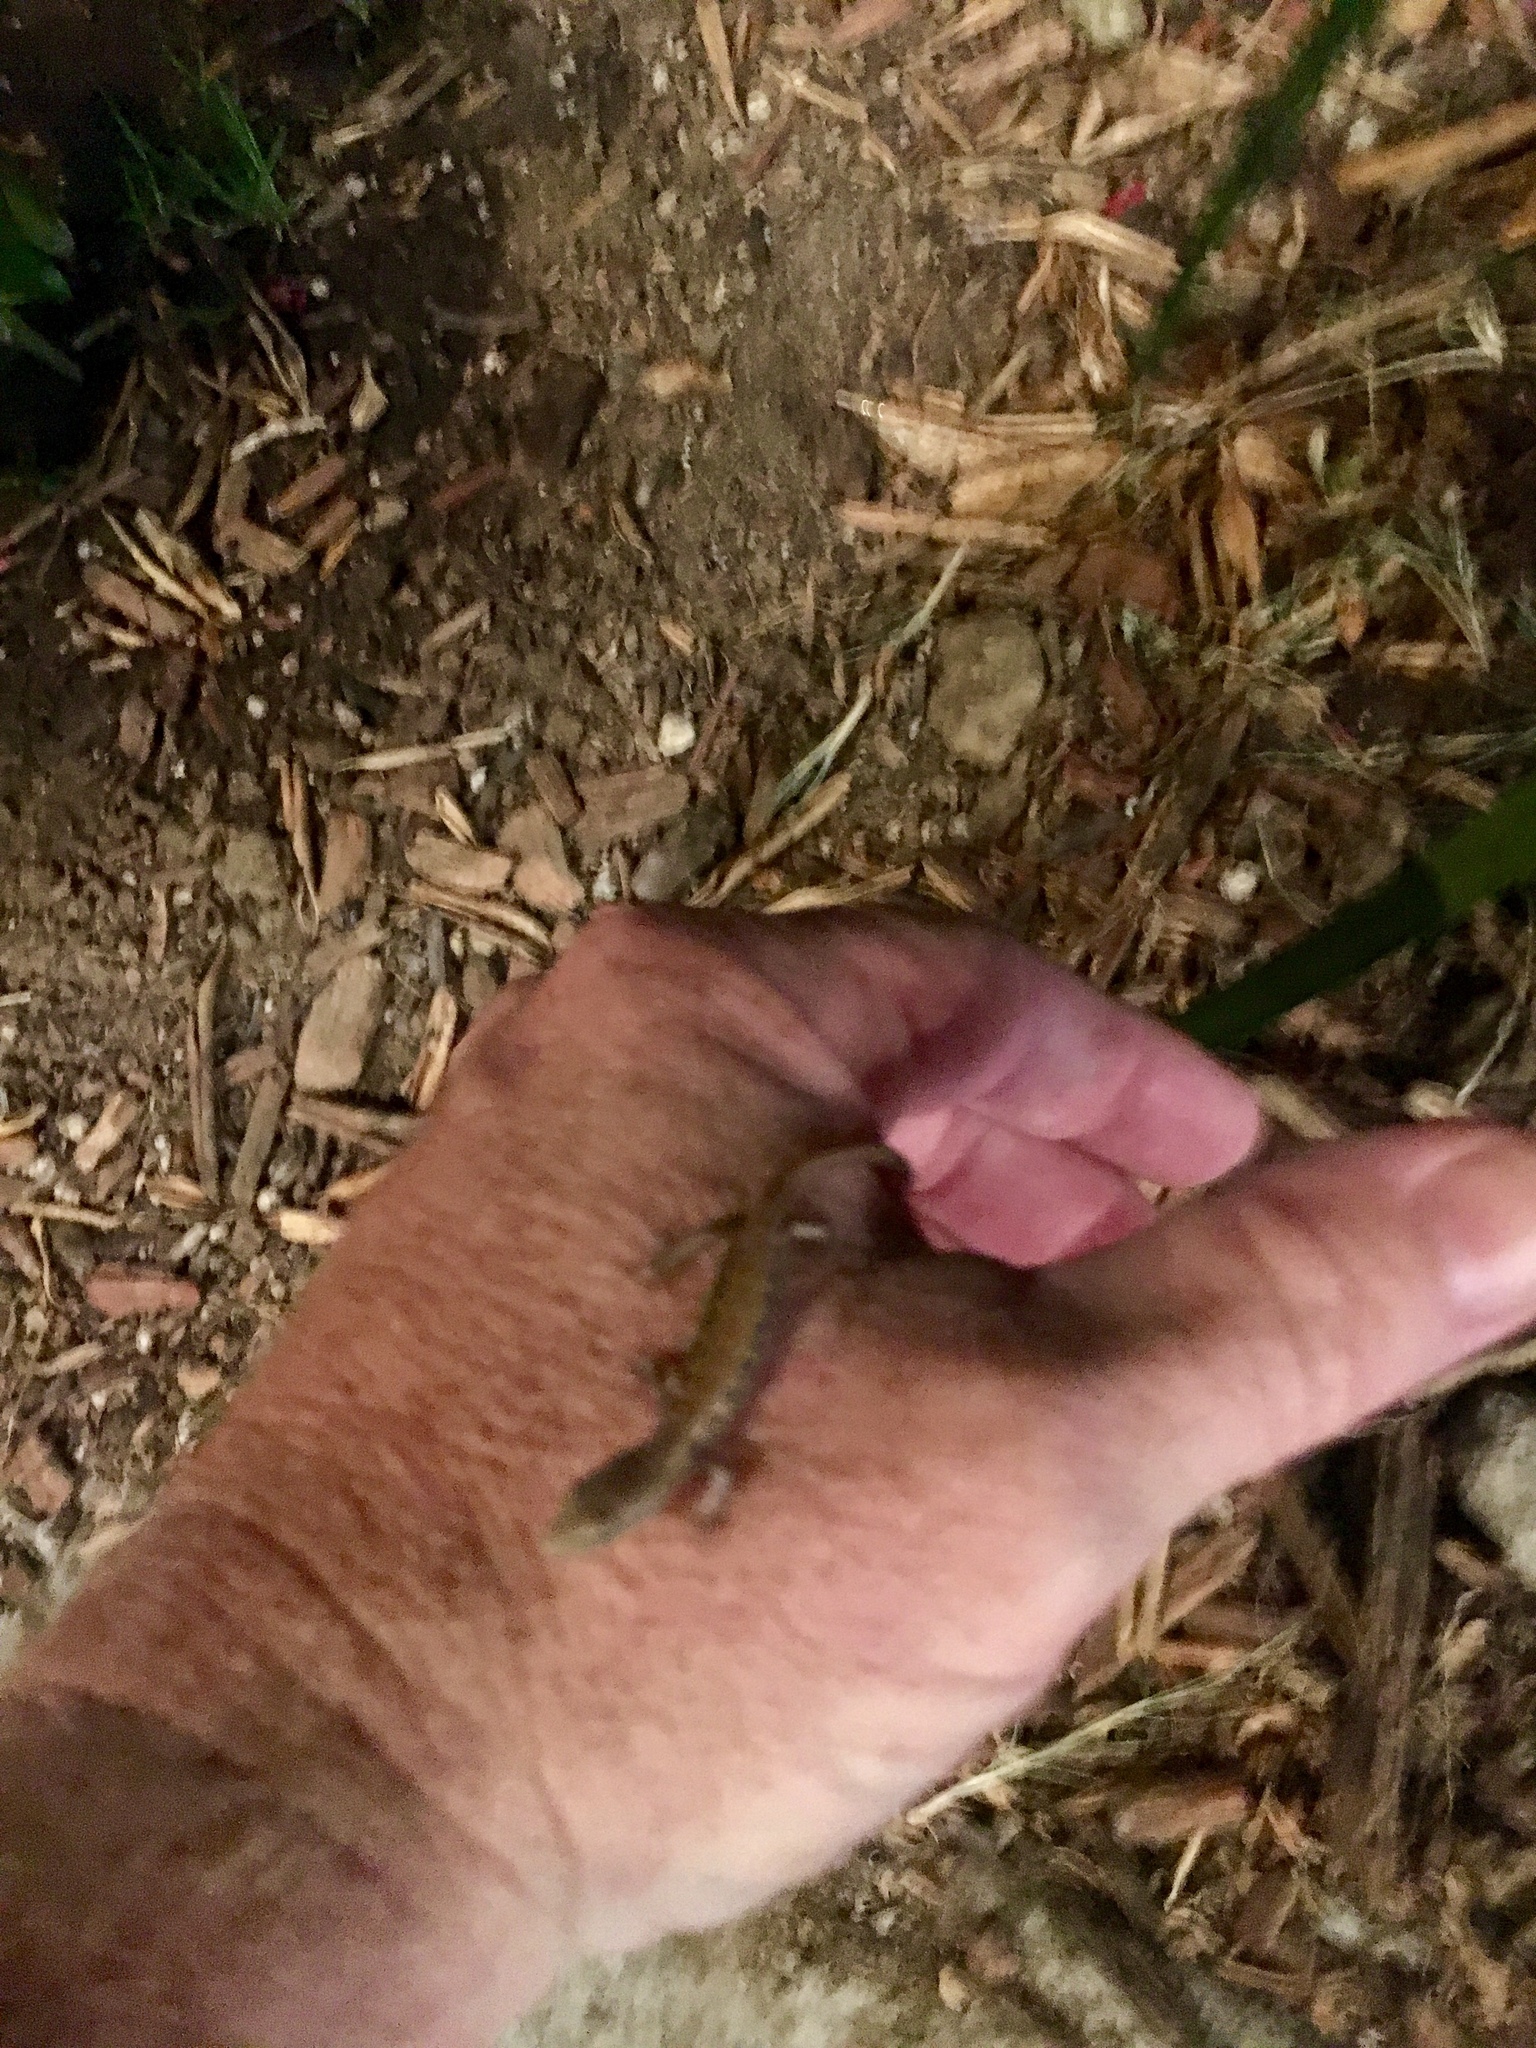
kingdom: Animalia
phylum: Chordata
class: Squamata
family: Anguidae
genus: Elgaria
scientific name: Elgaria multicarinata
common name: Southern alligator lizard
